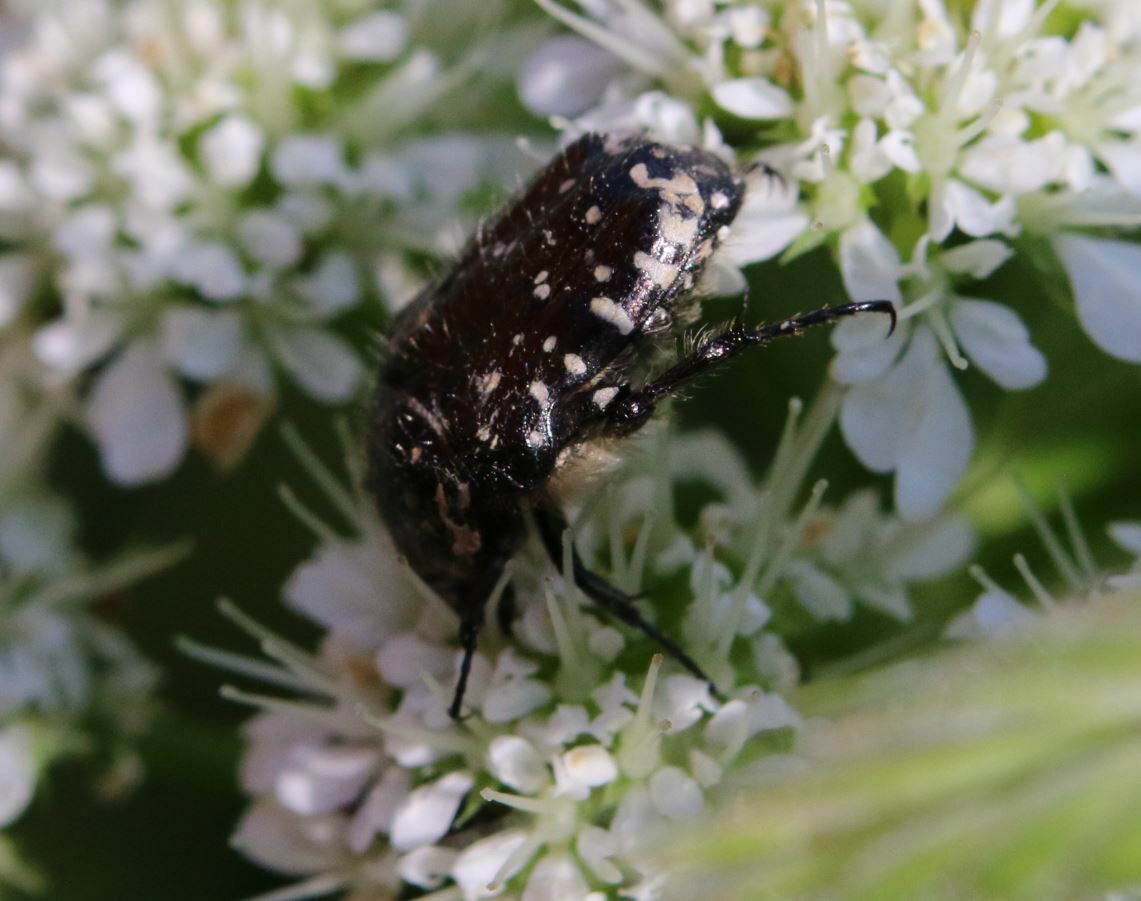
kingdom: Animalia
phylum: Arthropoda
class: Insecta
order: Coleoptera
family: Scarabaeidae
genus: Oxythyrea
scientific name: Oxythyrea funesta
